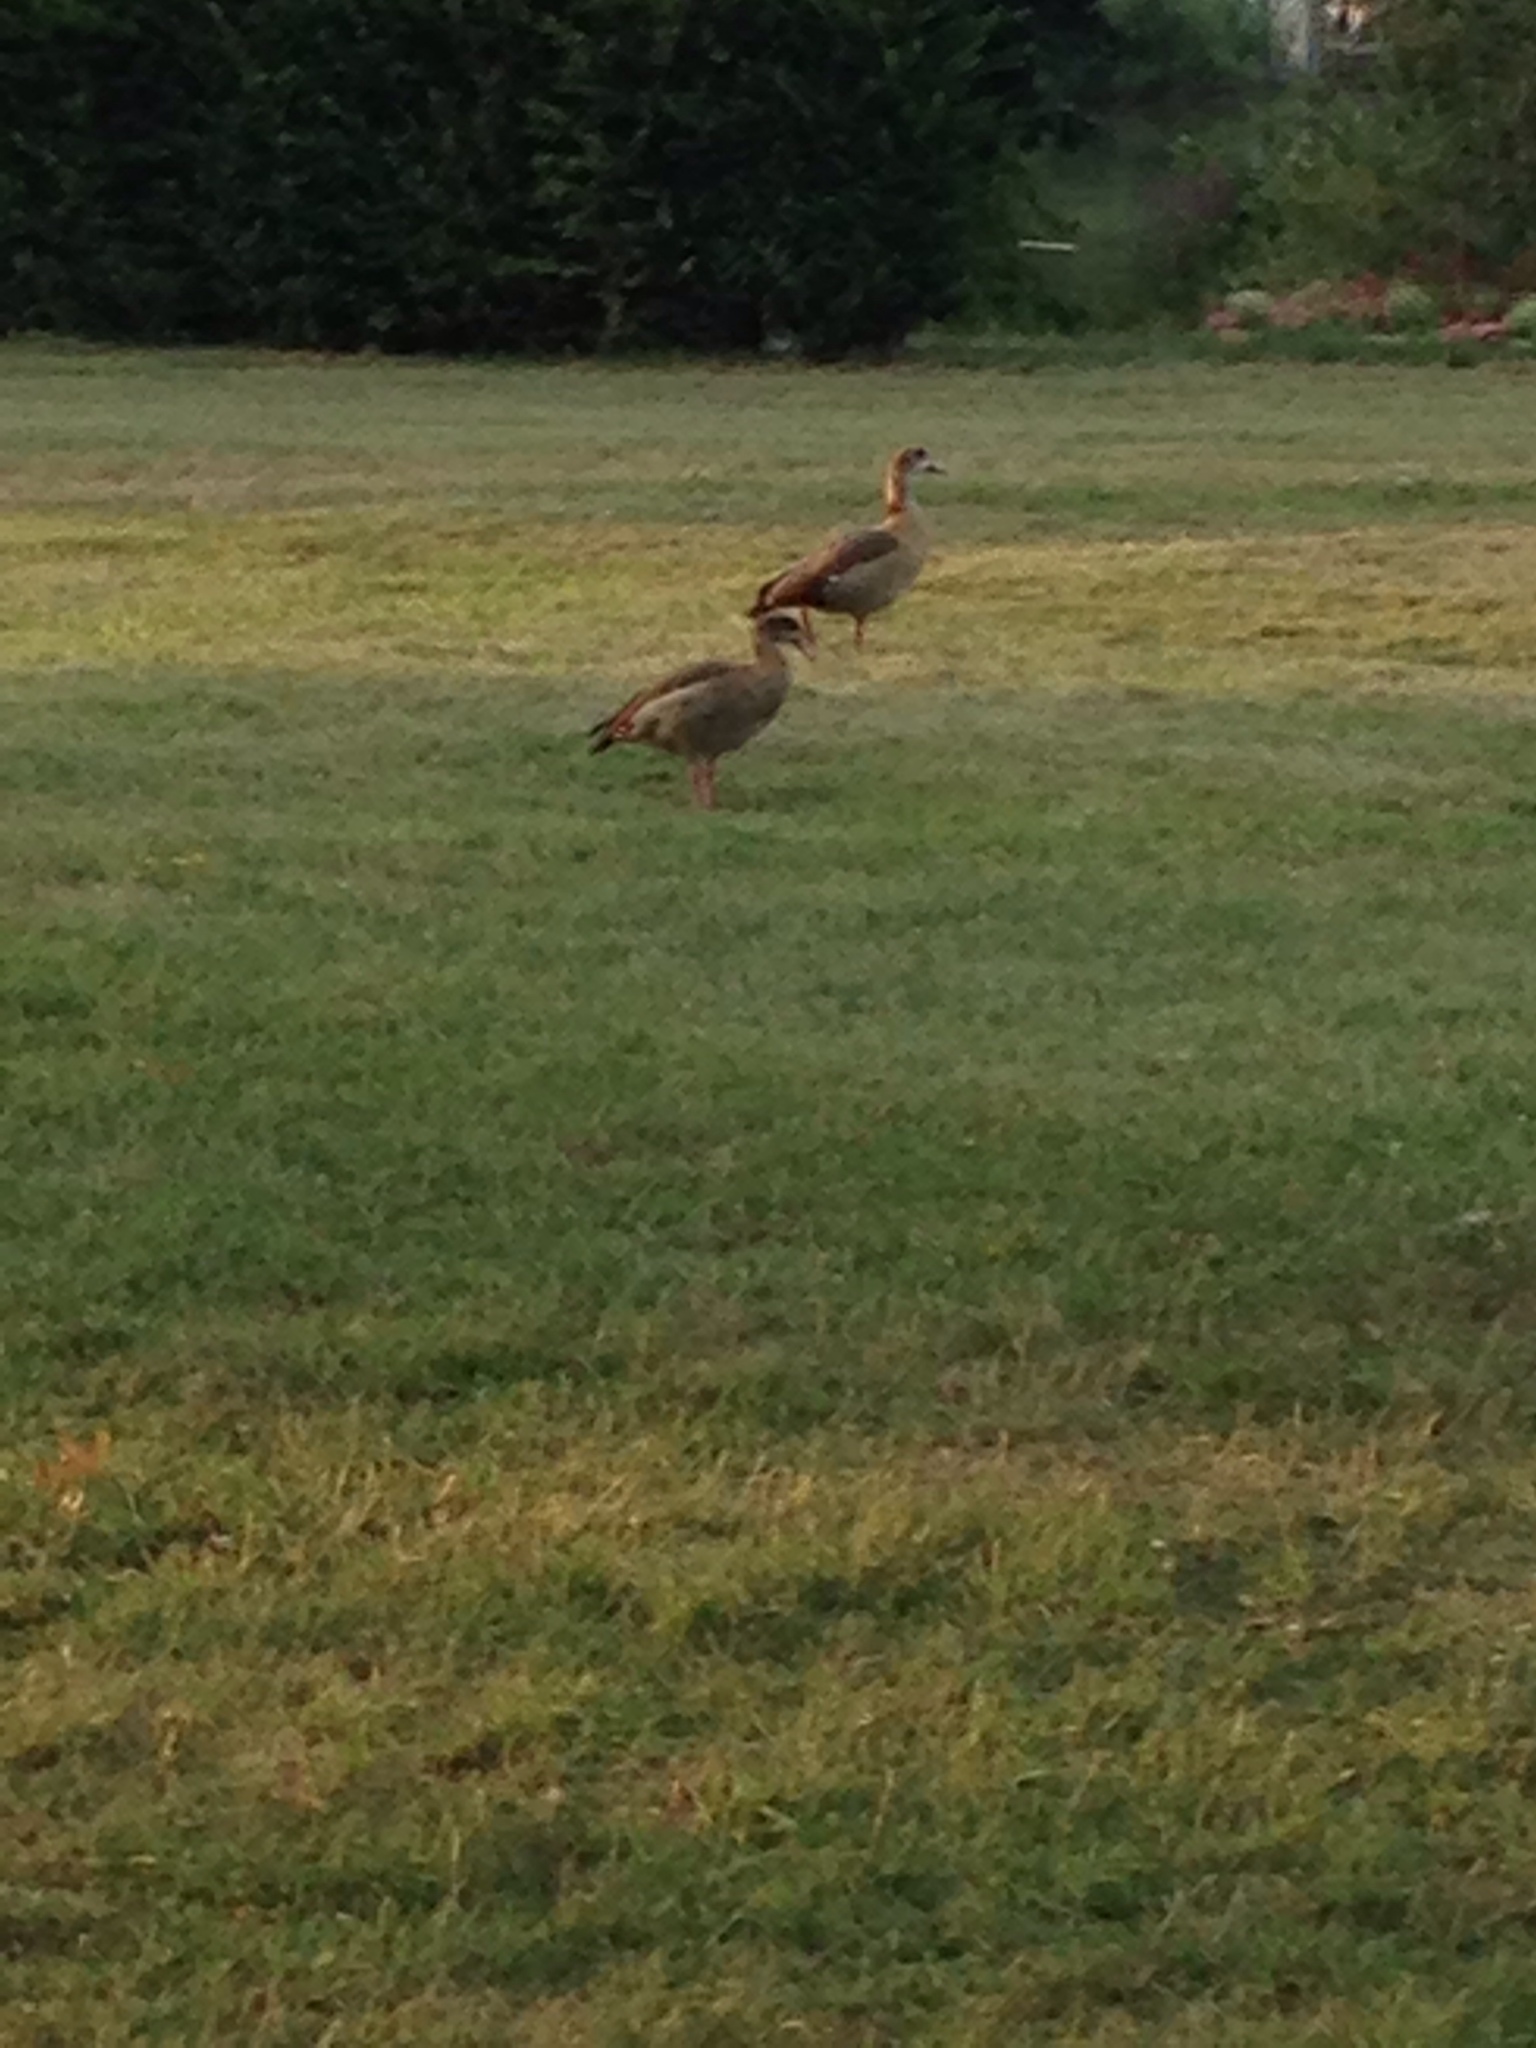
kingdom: Animalia
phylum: Chordata
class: Aves
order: Anseriformes
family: Anatidae
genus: Alopochen
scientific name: Alopochen aegyptiaca
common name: Egyptian goose
